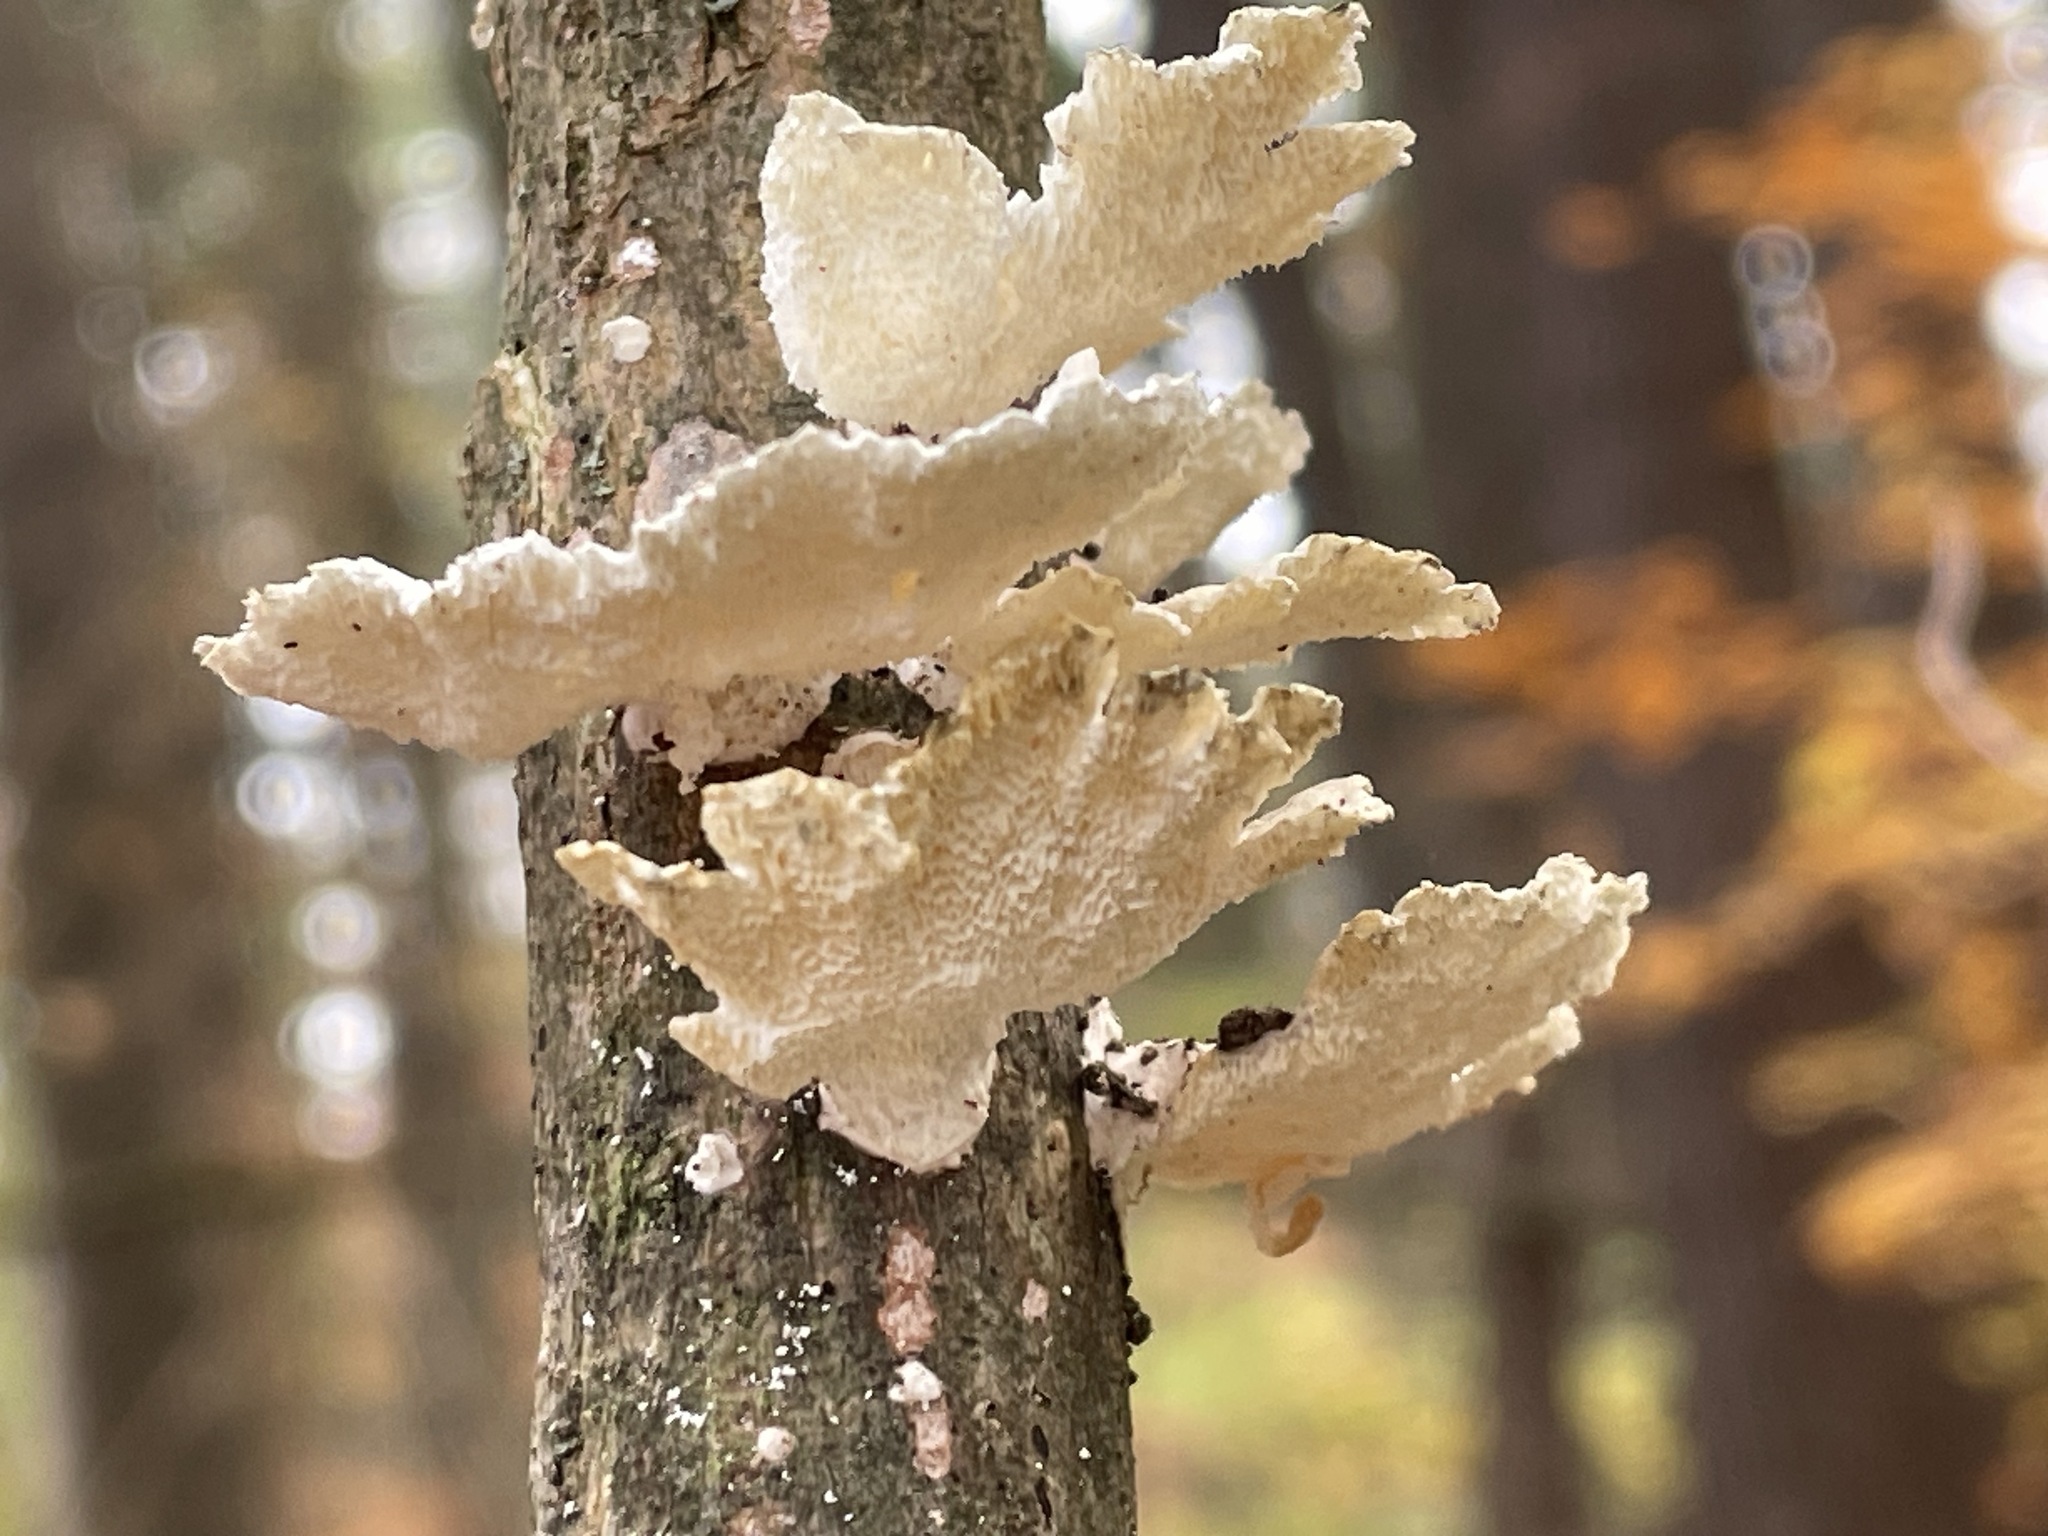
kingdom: Fungi
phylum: Basidiomycota
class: Agaricomycetes
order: Polyporales
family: Polyporaceae
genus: Poronidulus
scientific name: Poronidulus conchifer
